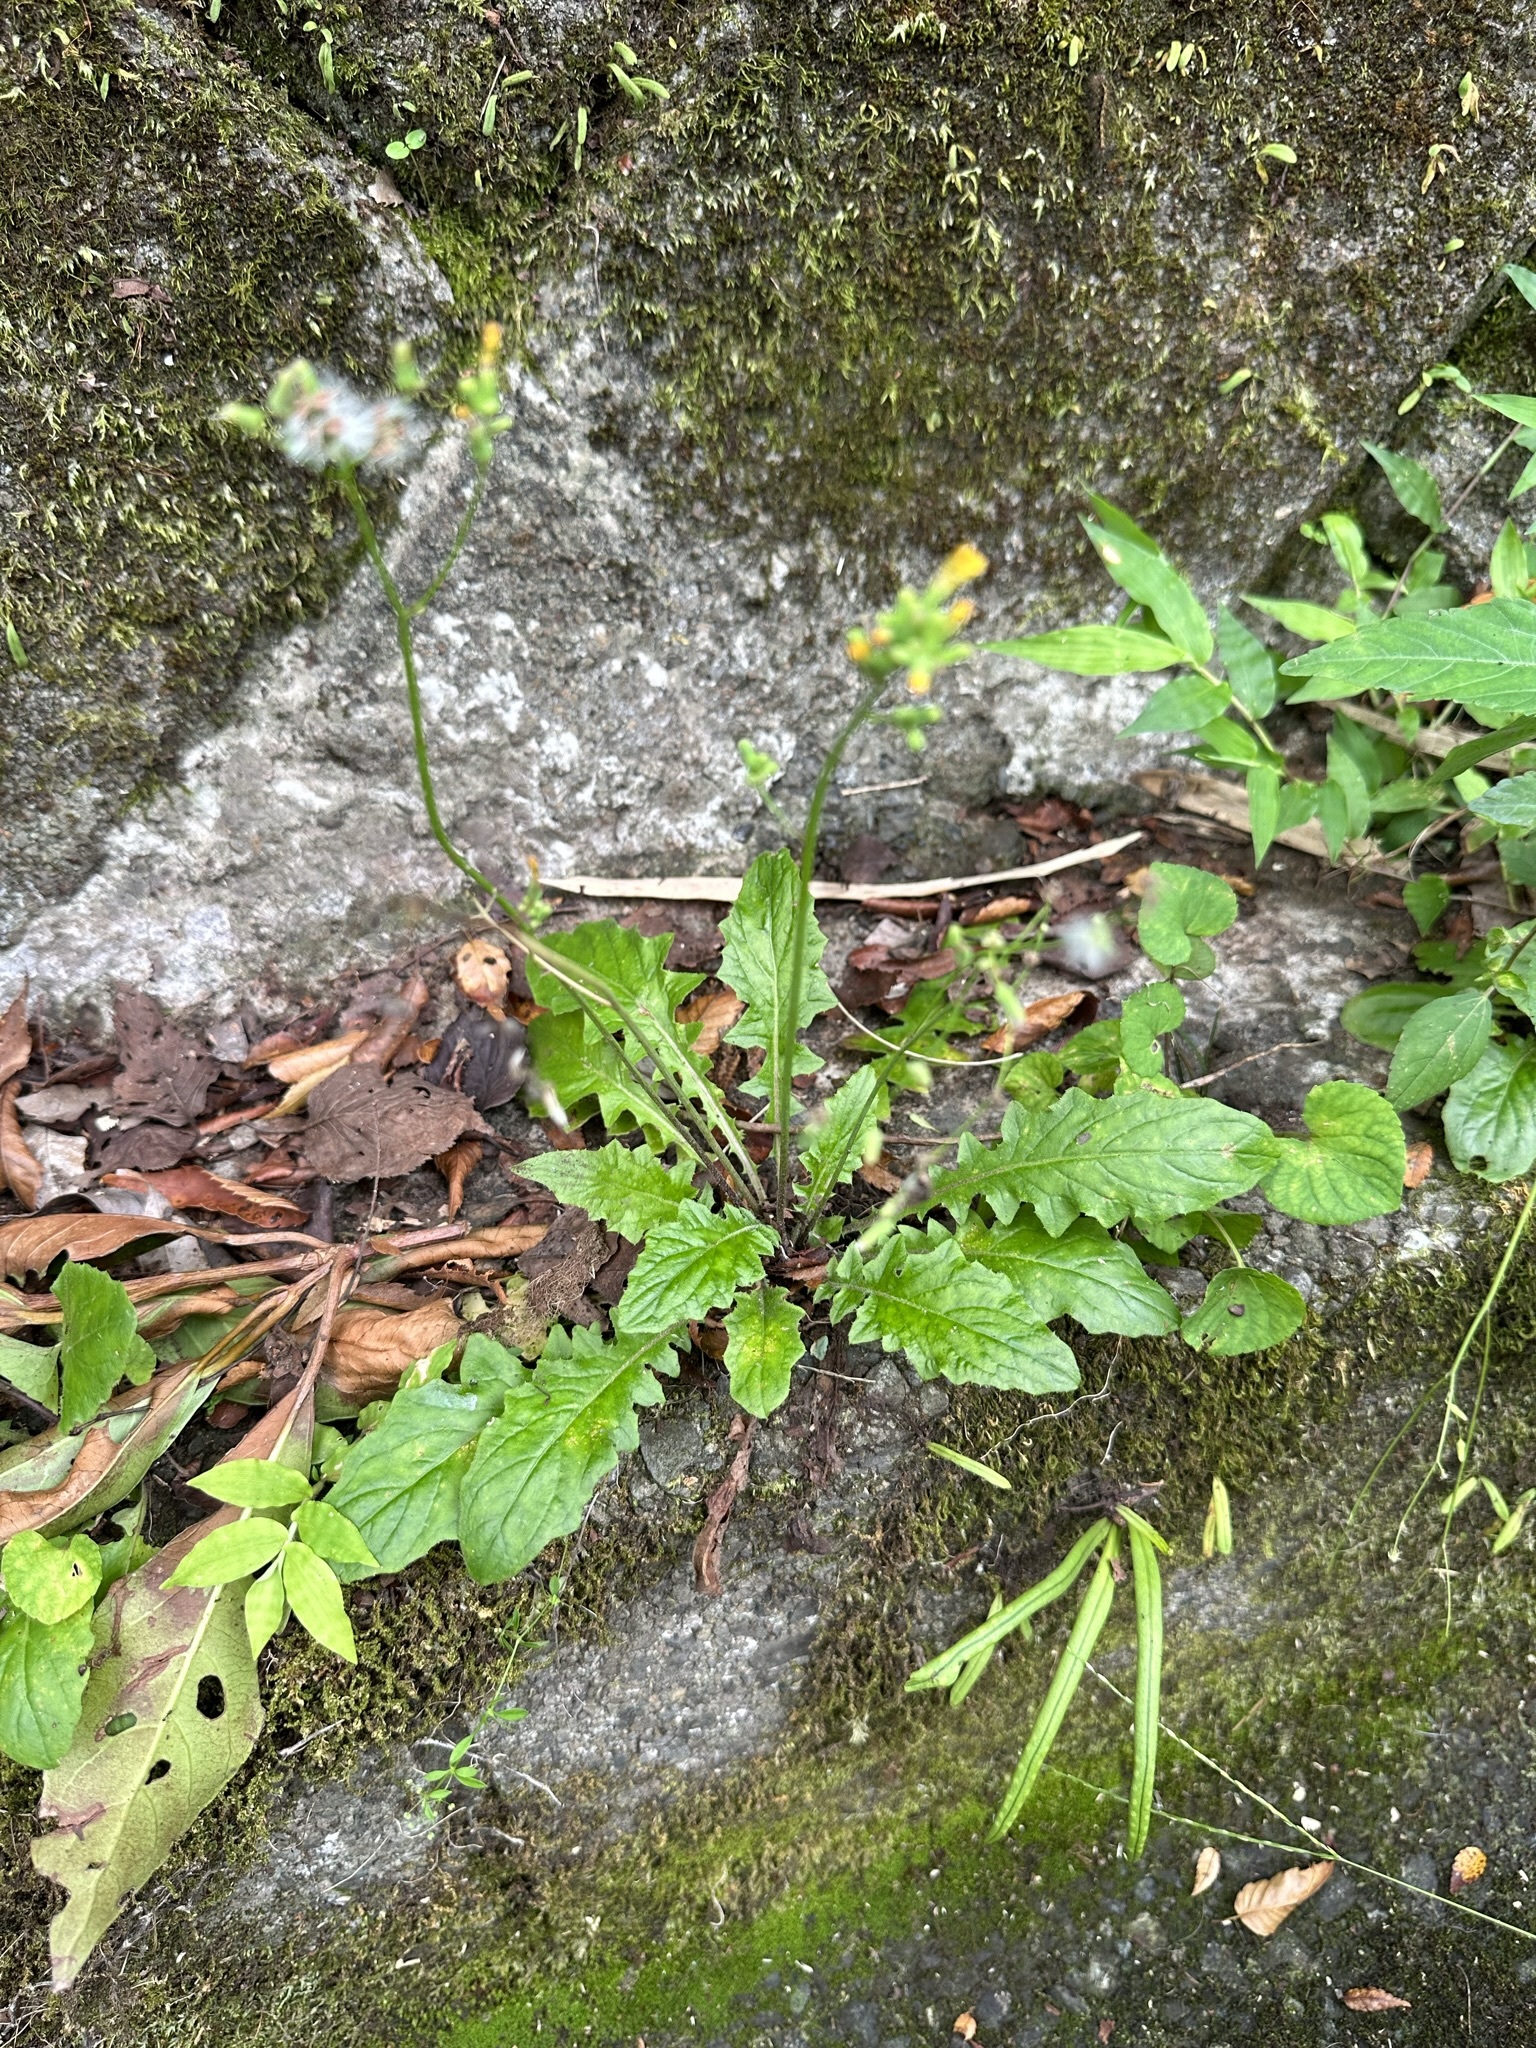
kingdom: Plantae
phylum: Tracheophyta
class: Magnoliopsida
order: Asterales
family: Asteraceae
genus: Youngia
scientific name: Youngia japonica
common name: Oriental false hawksbeard
